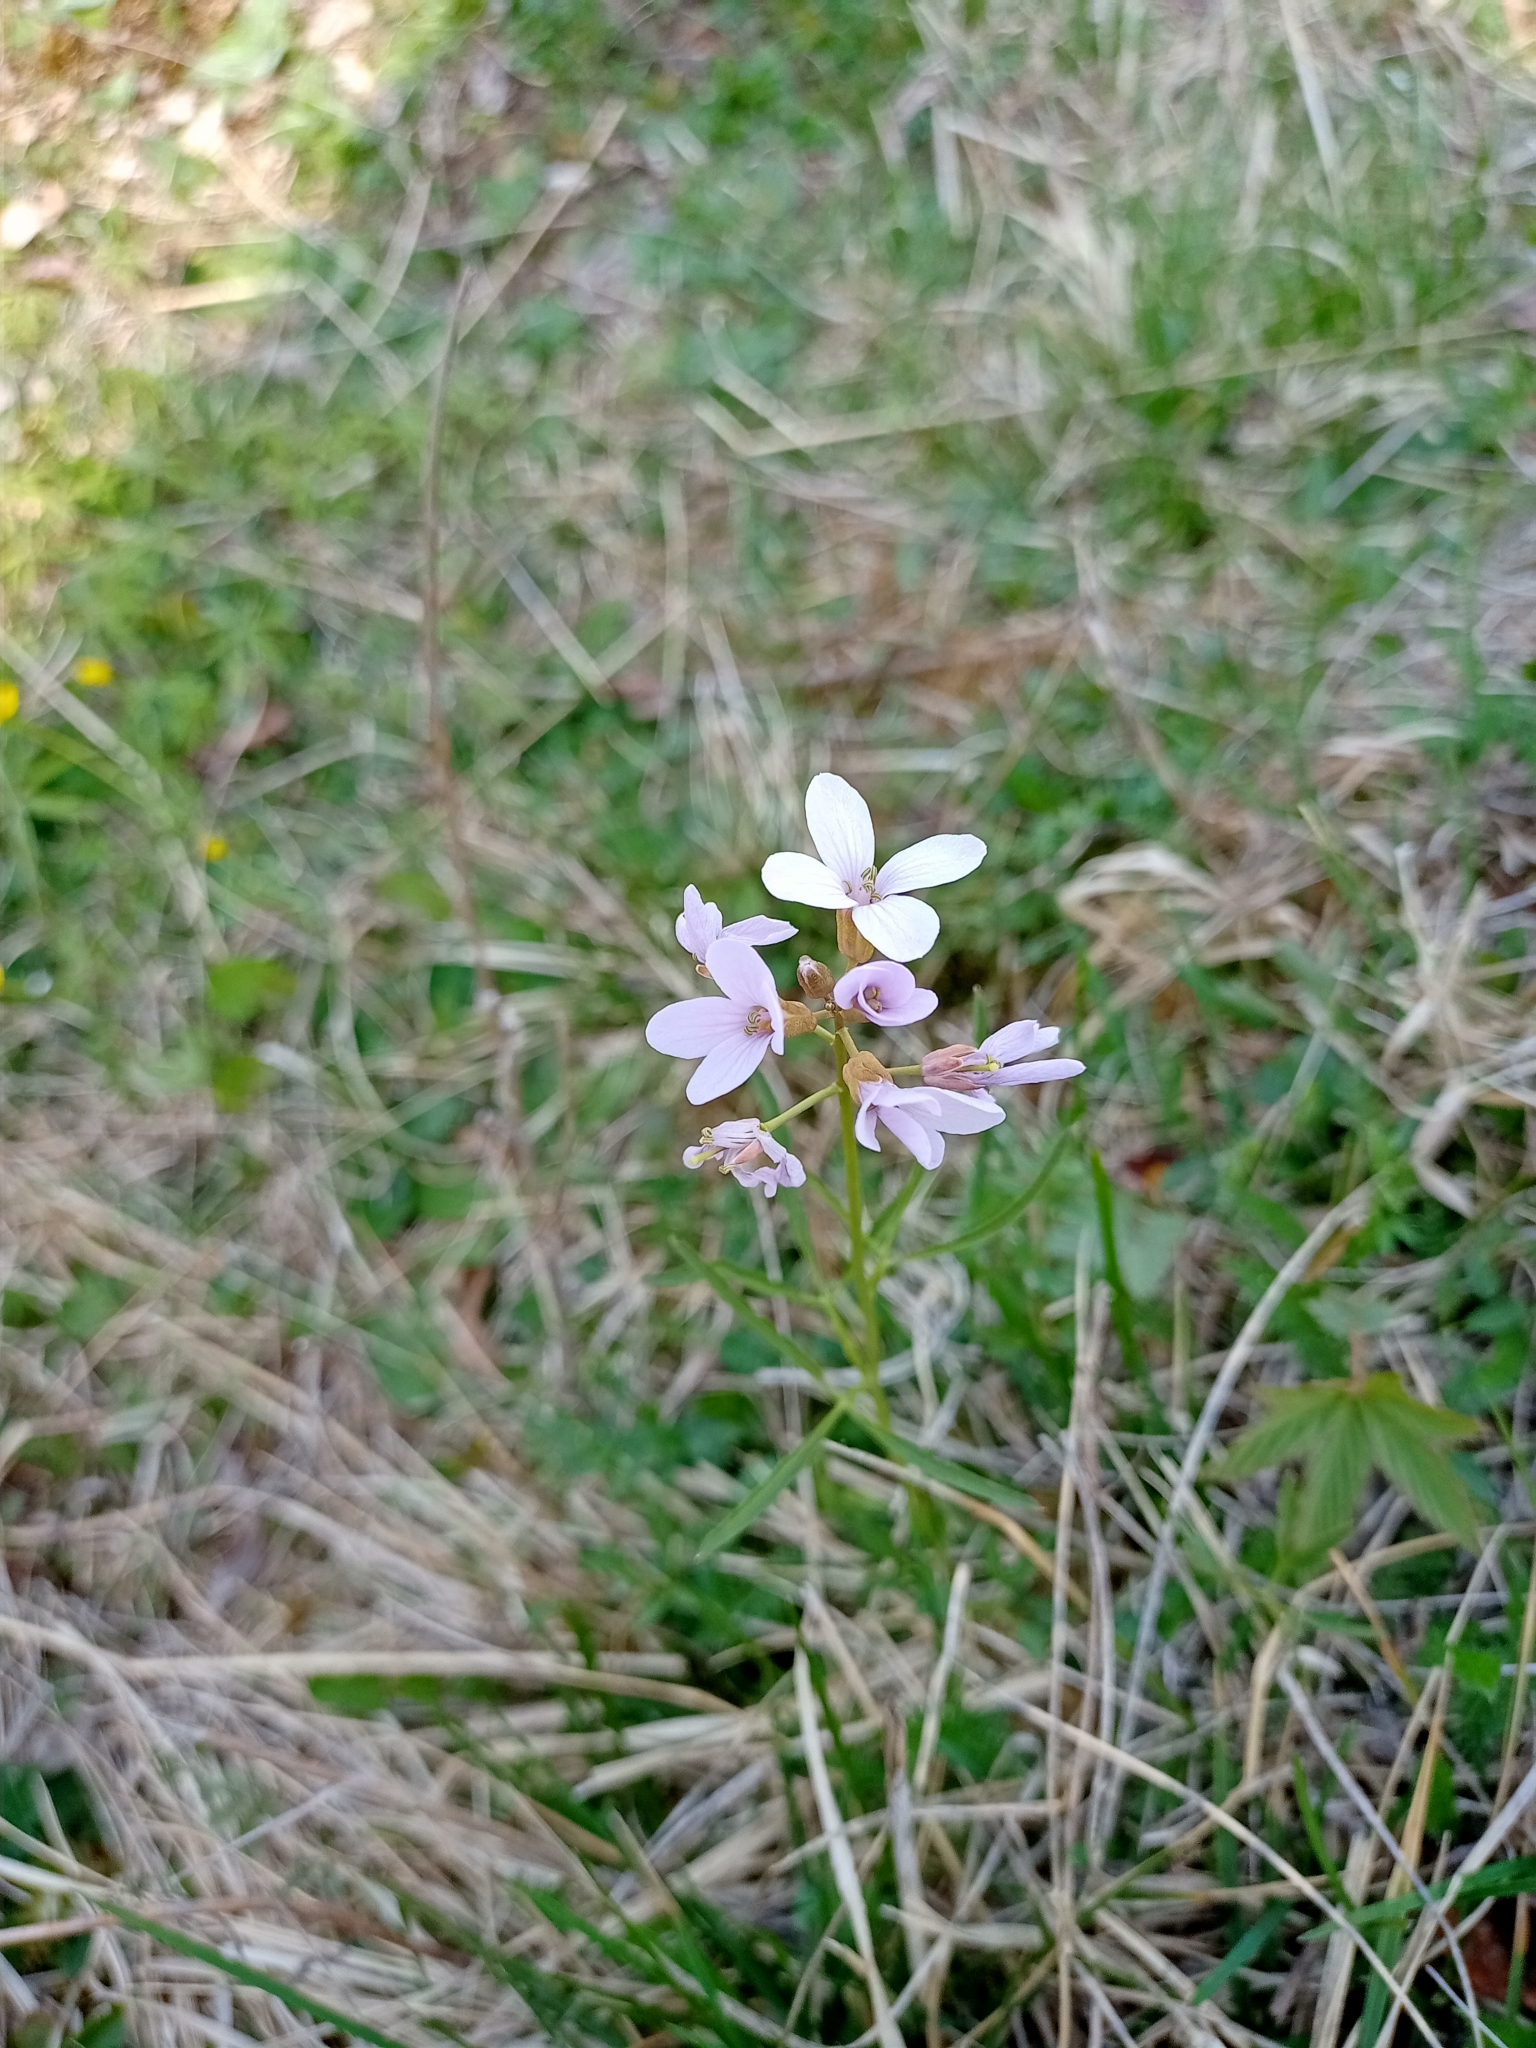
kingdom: Plantae
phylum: Tracheophyta
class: Magnoliopsida
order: Brassicales
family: Brassicaceae
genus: Cardamine
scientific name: Cardamine trifida
